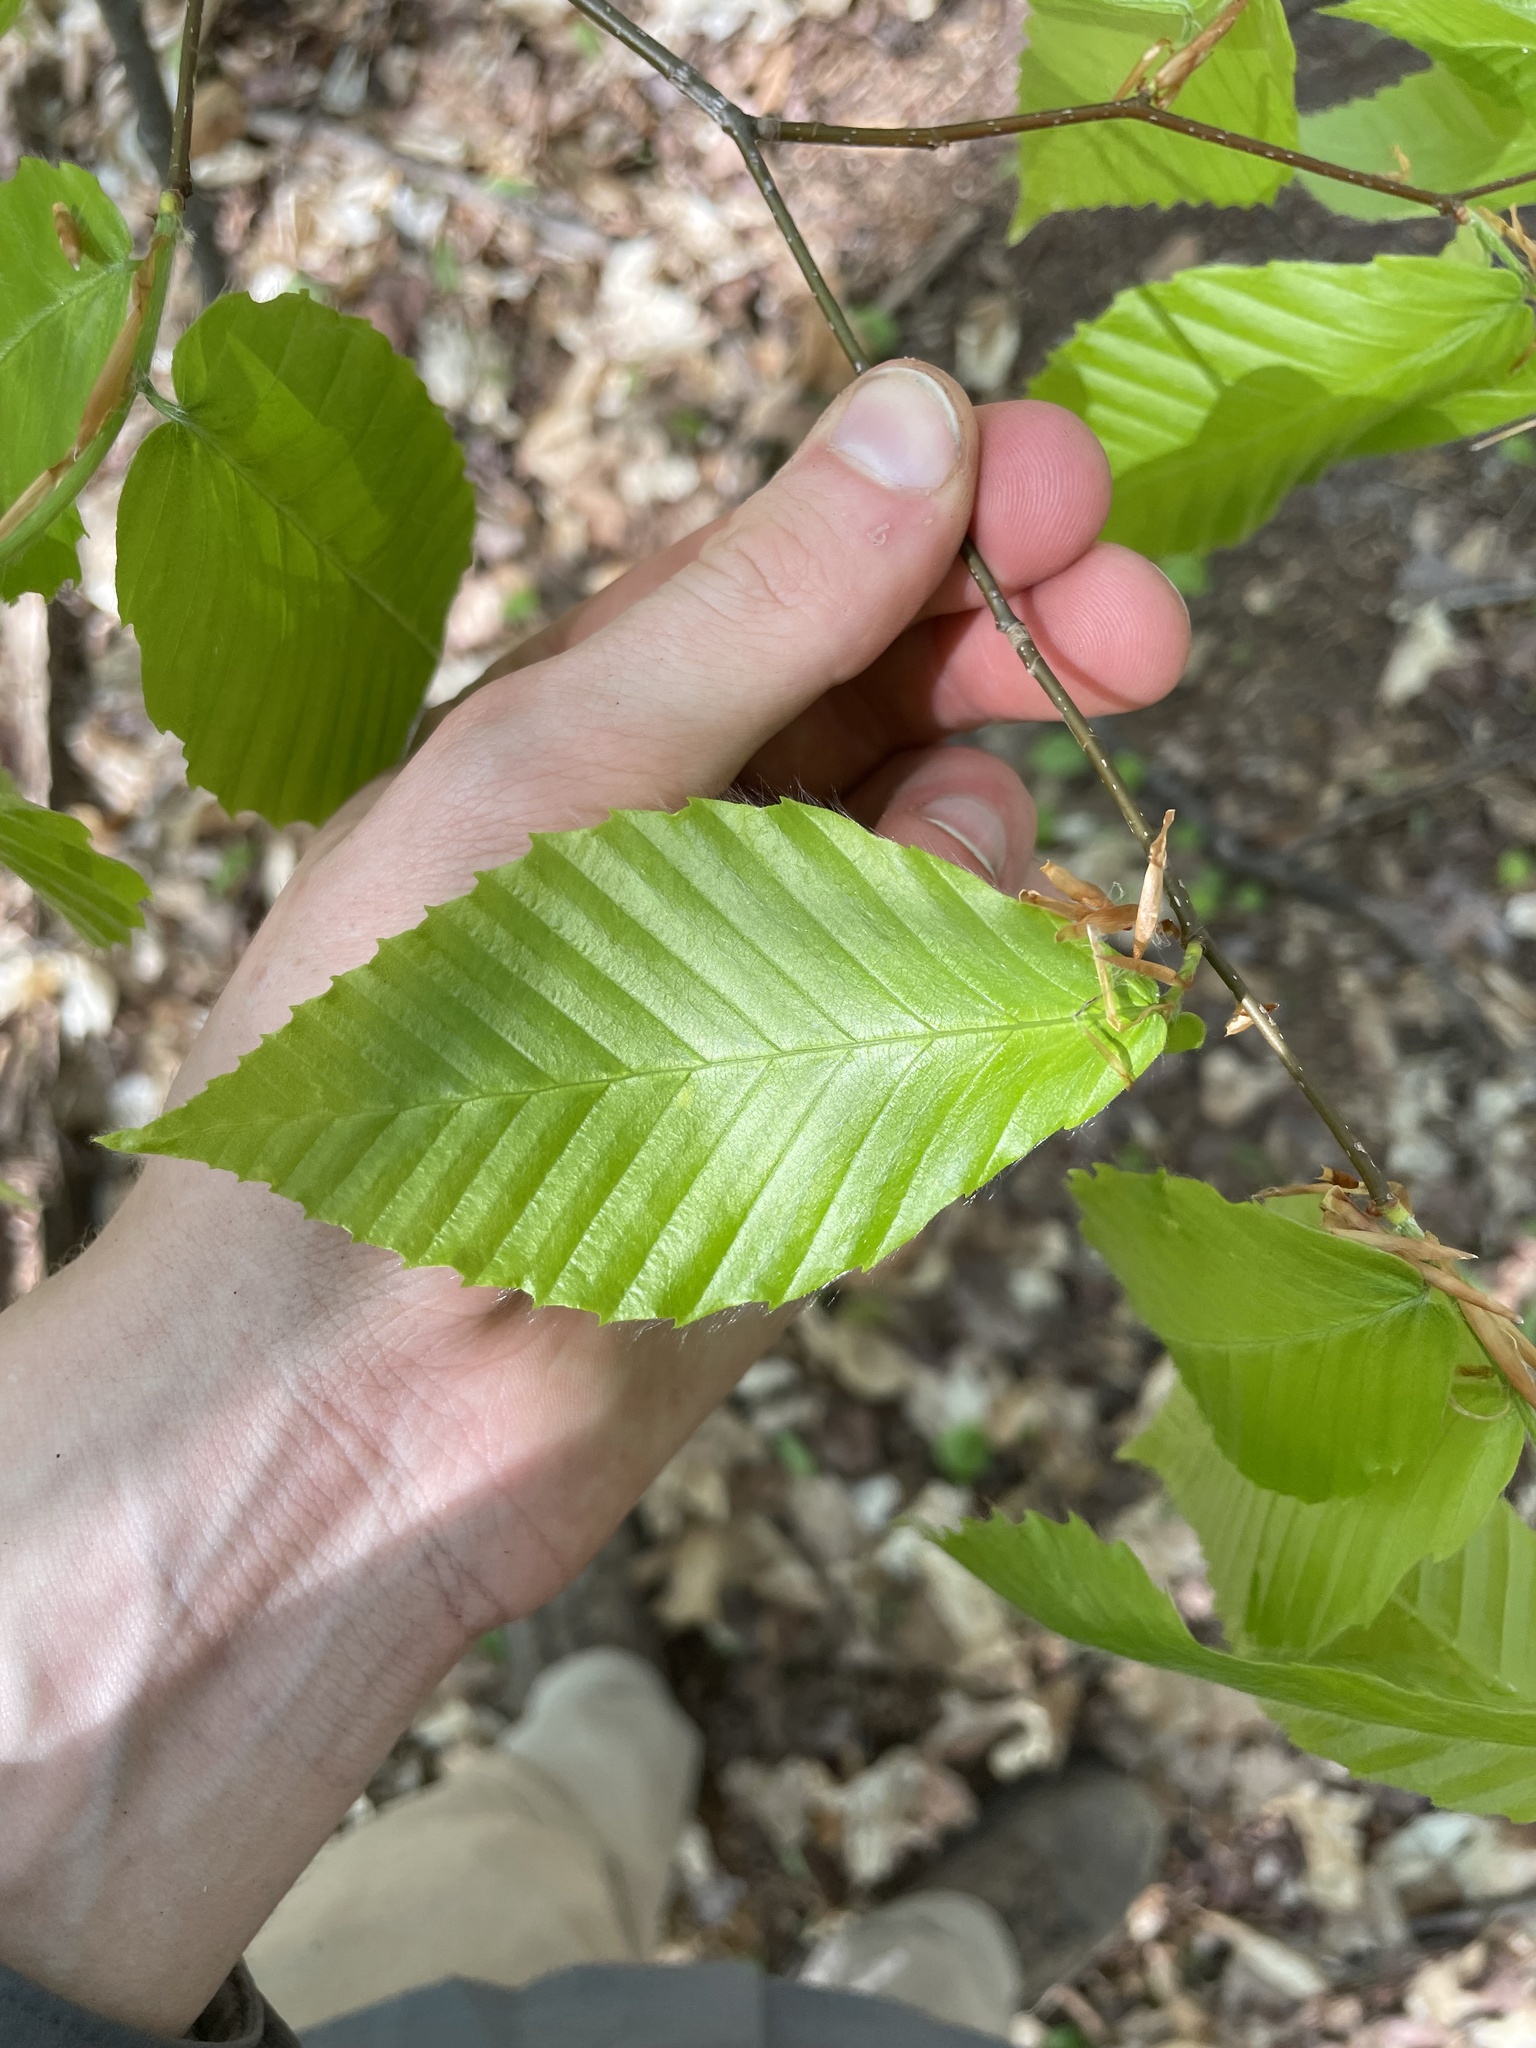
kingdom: Plantae
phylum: Tracheophyta
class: Magnoliopsida
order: Fagales
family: Fagaceae
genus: Fagus
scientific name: Fagus grandifolia
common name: American beech
